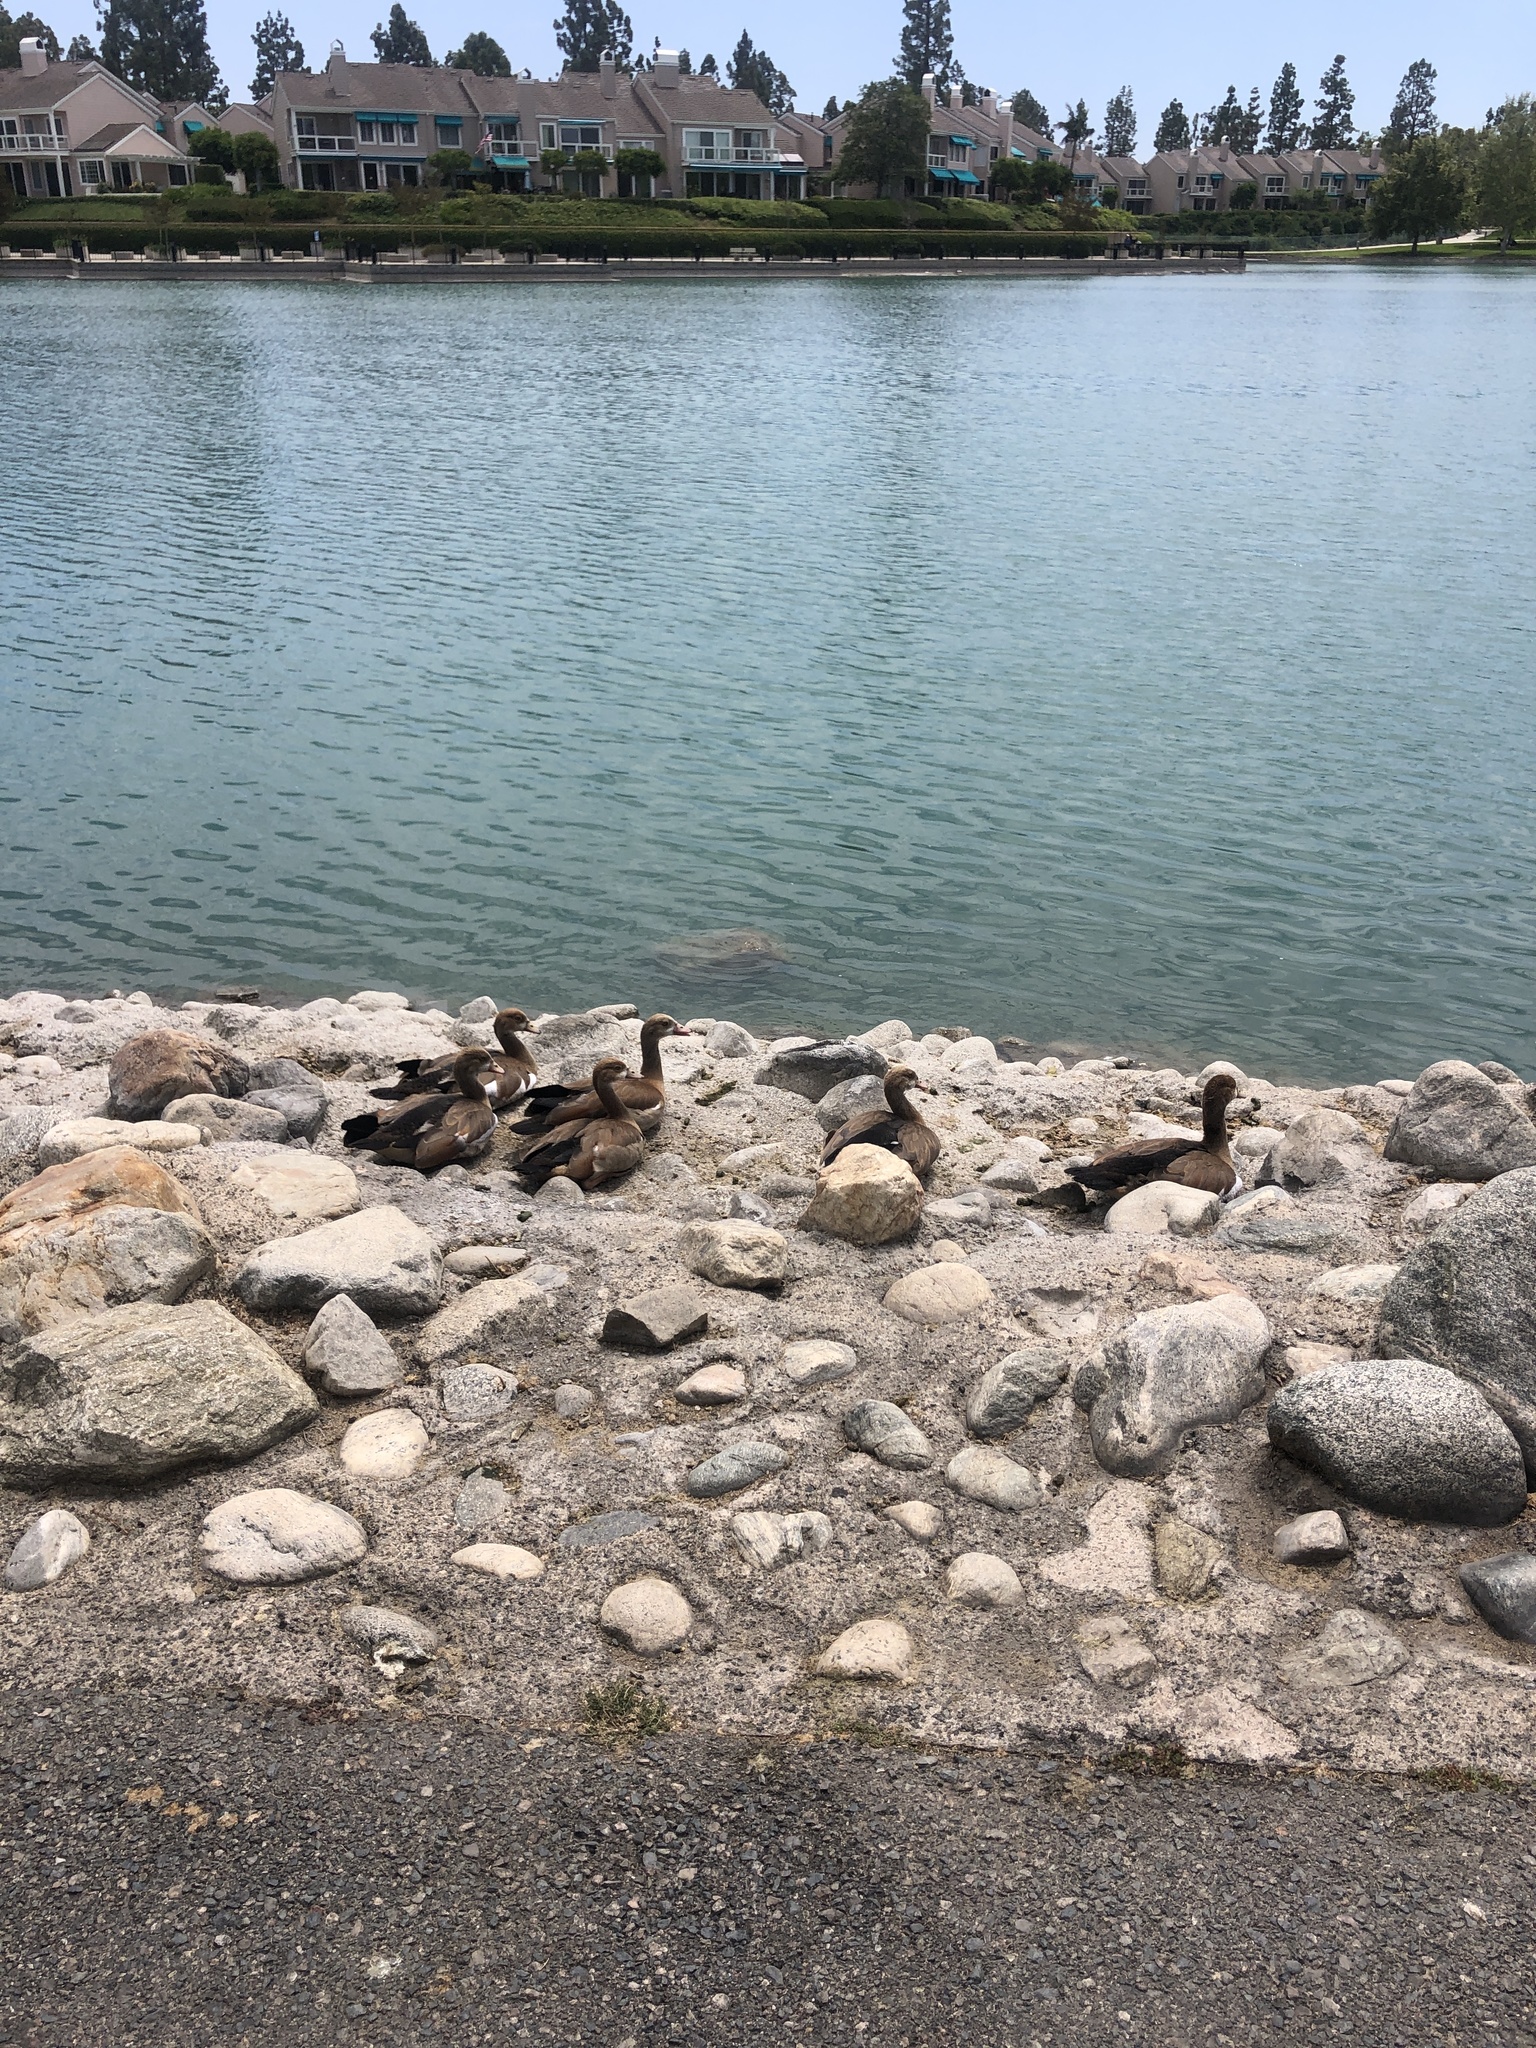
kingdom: Animalia
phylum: Chordata
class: Aves
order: Anseriformes
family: Anatidae
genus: Alopochen
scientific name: Alopochen aegyptiaca
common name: Egyptian goose
